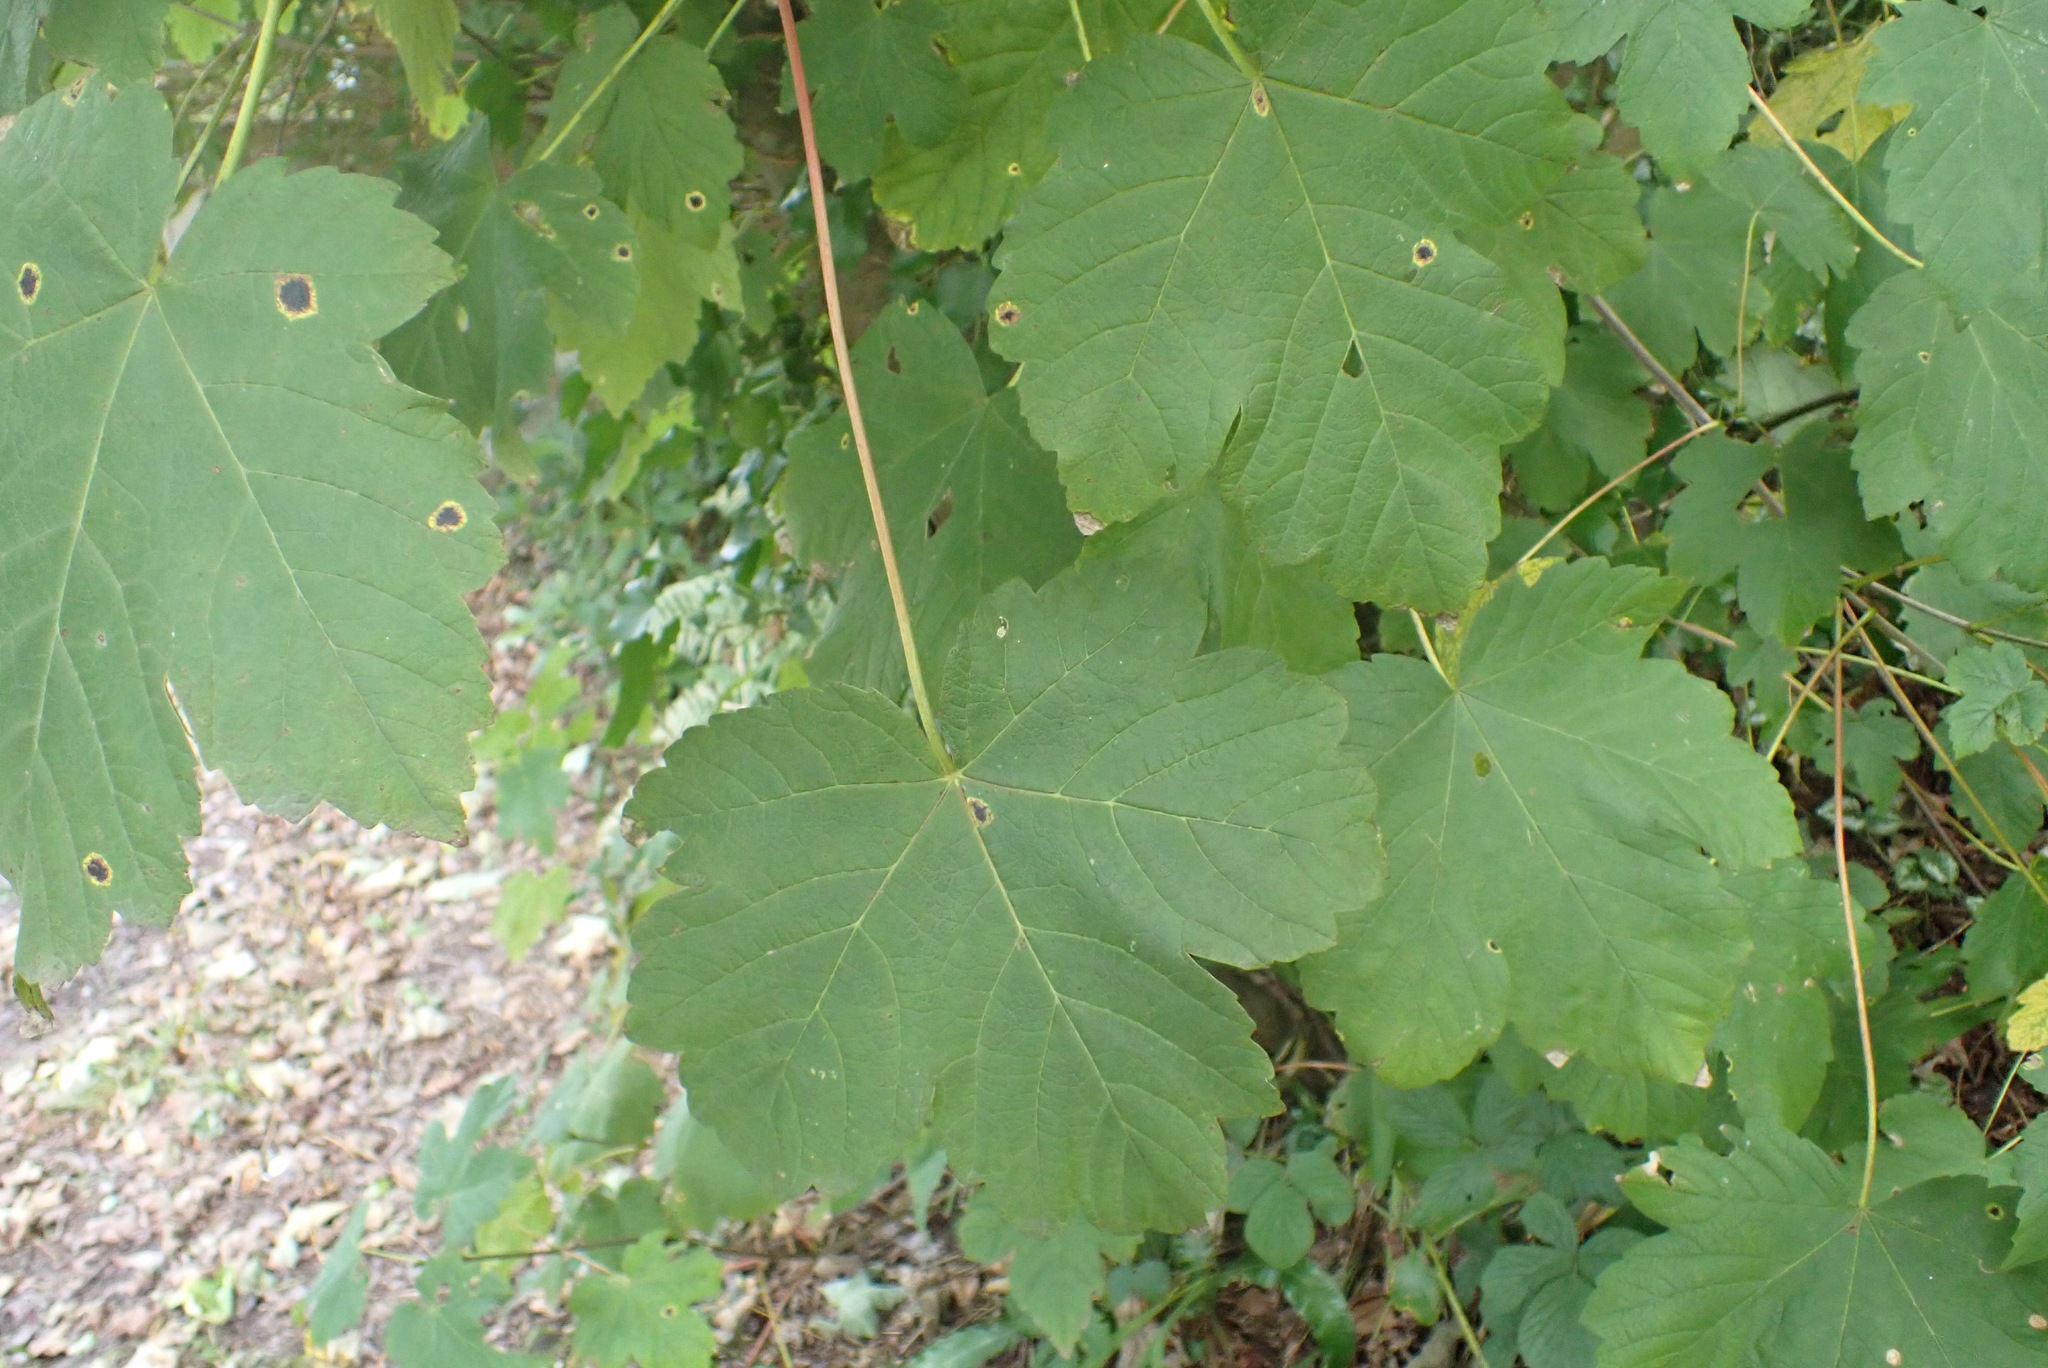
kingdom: Plantae
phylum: Tracheophyta
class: Magnoliopsida
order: Sapindales
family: Sapindaceae
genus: Acer
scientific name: Acer pseudoplatanus
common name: Sycamore
